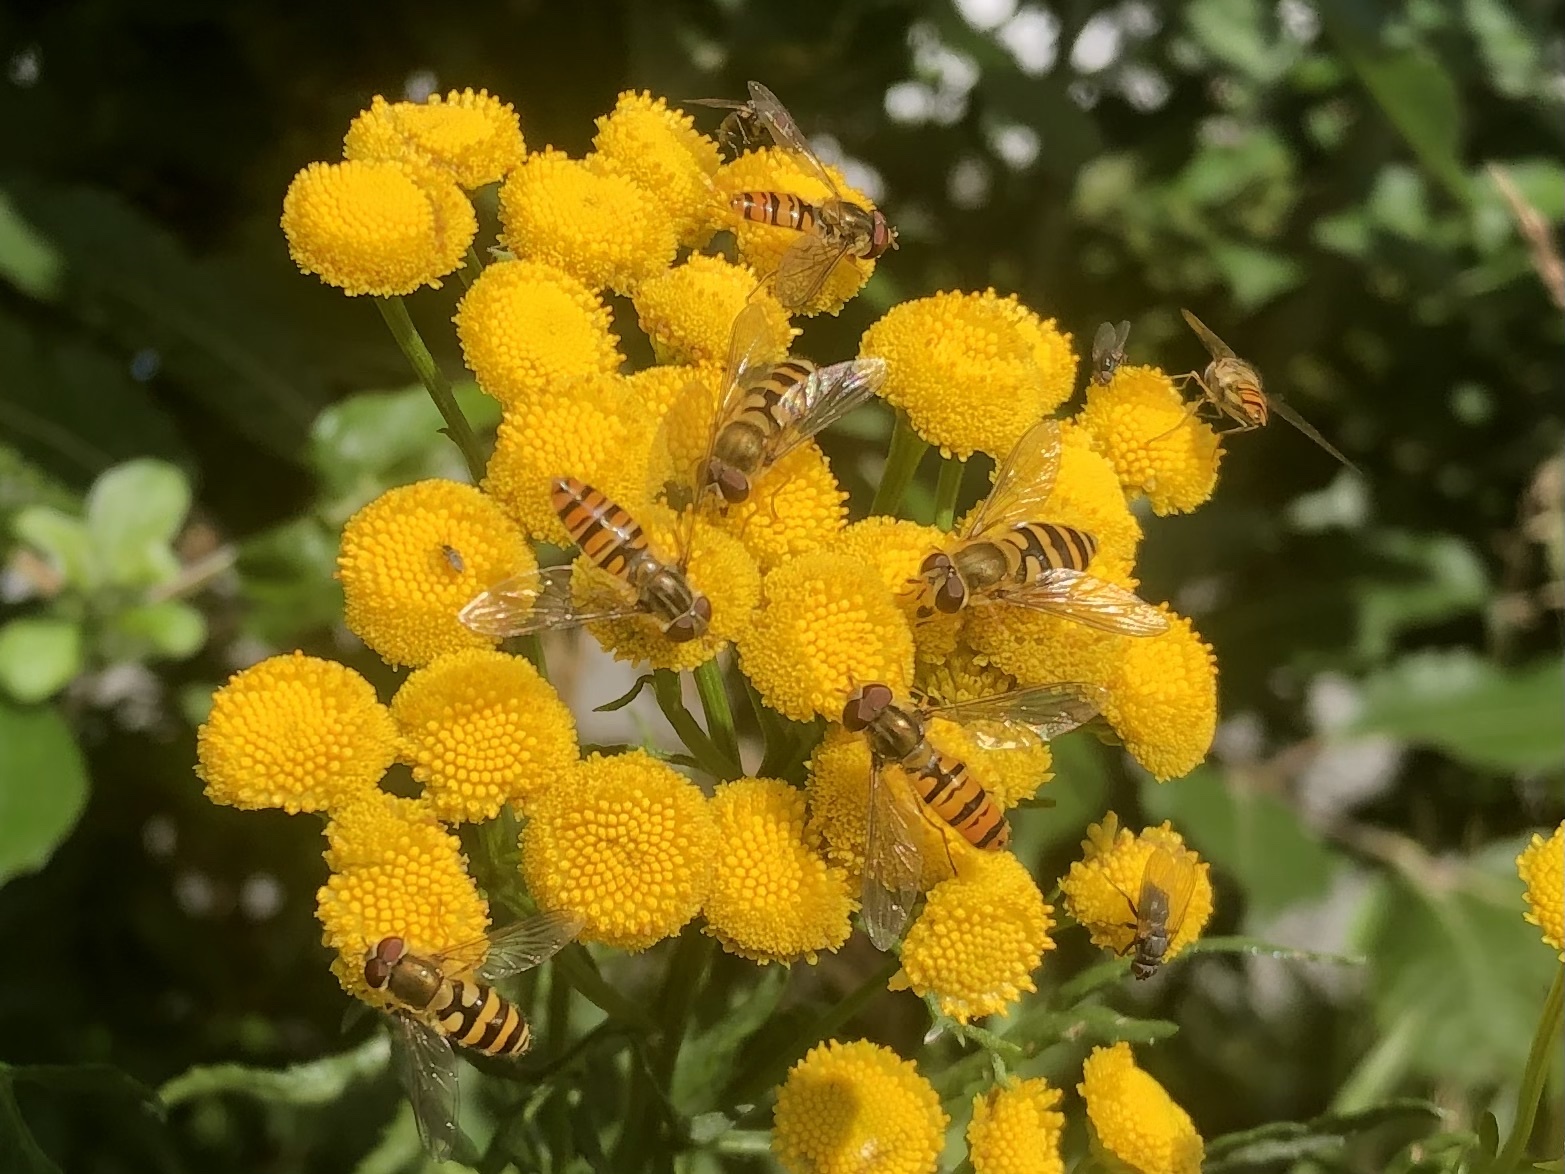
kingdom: Animalia
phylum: Arthropoda
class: Insecta
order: Diptera
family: Syrphidae
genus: Episyrphus
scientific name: Episyrphus balteatus
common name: Marmalade hoverfly
